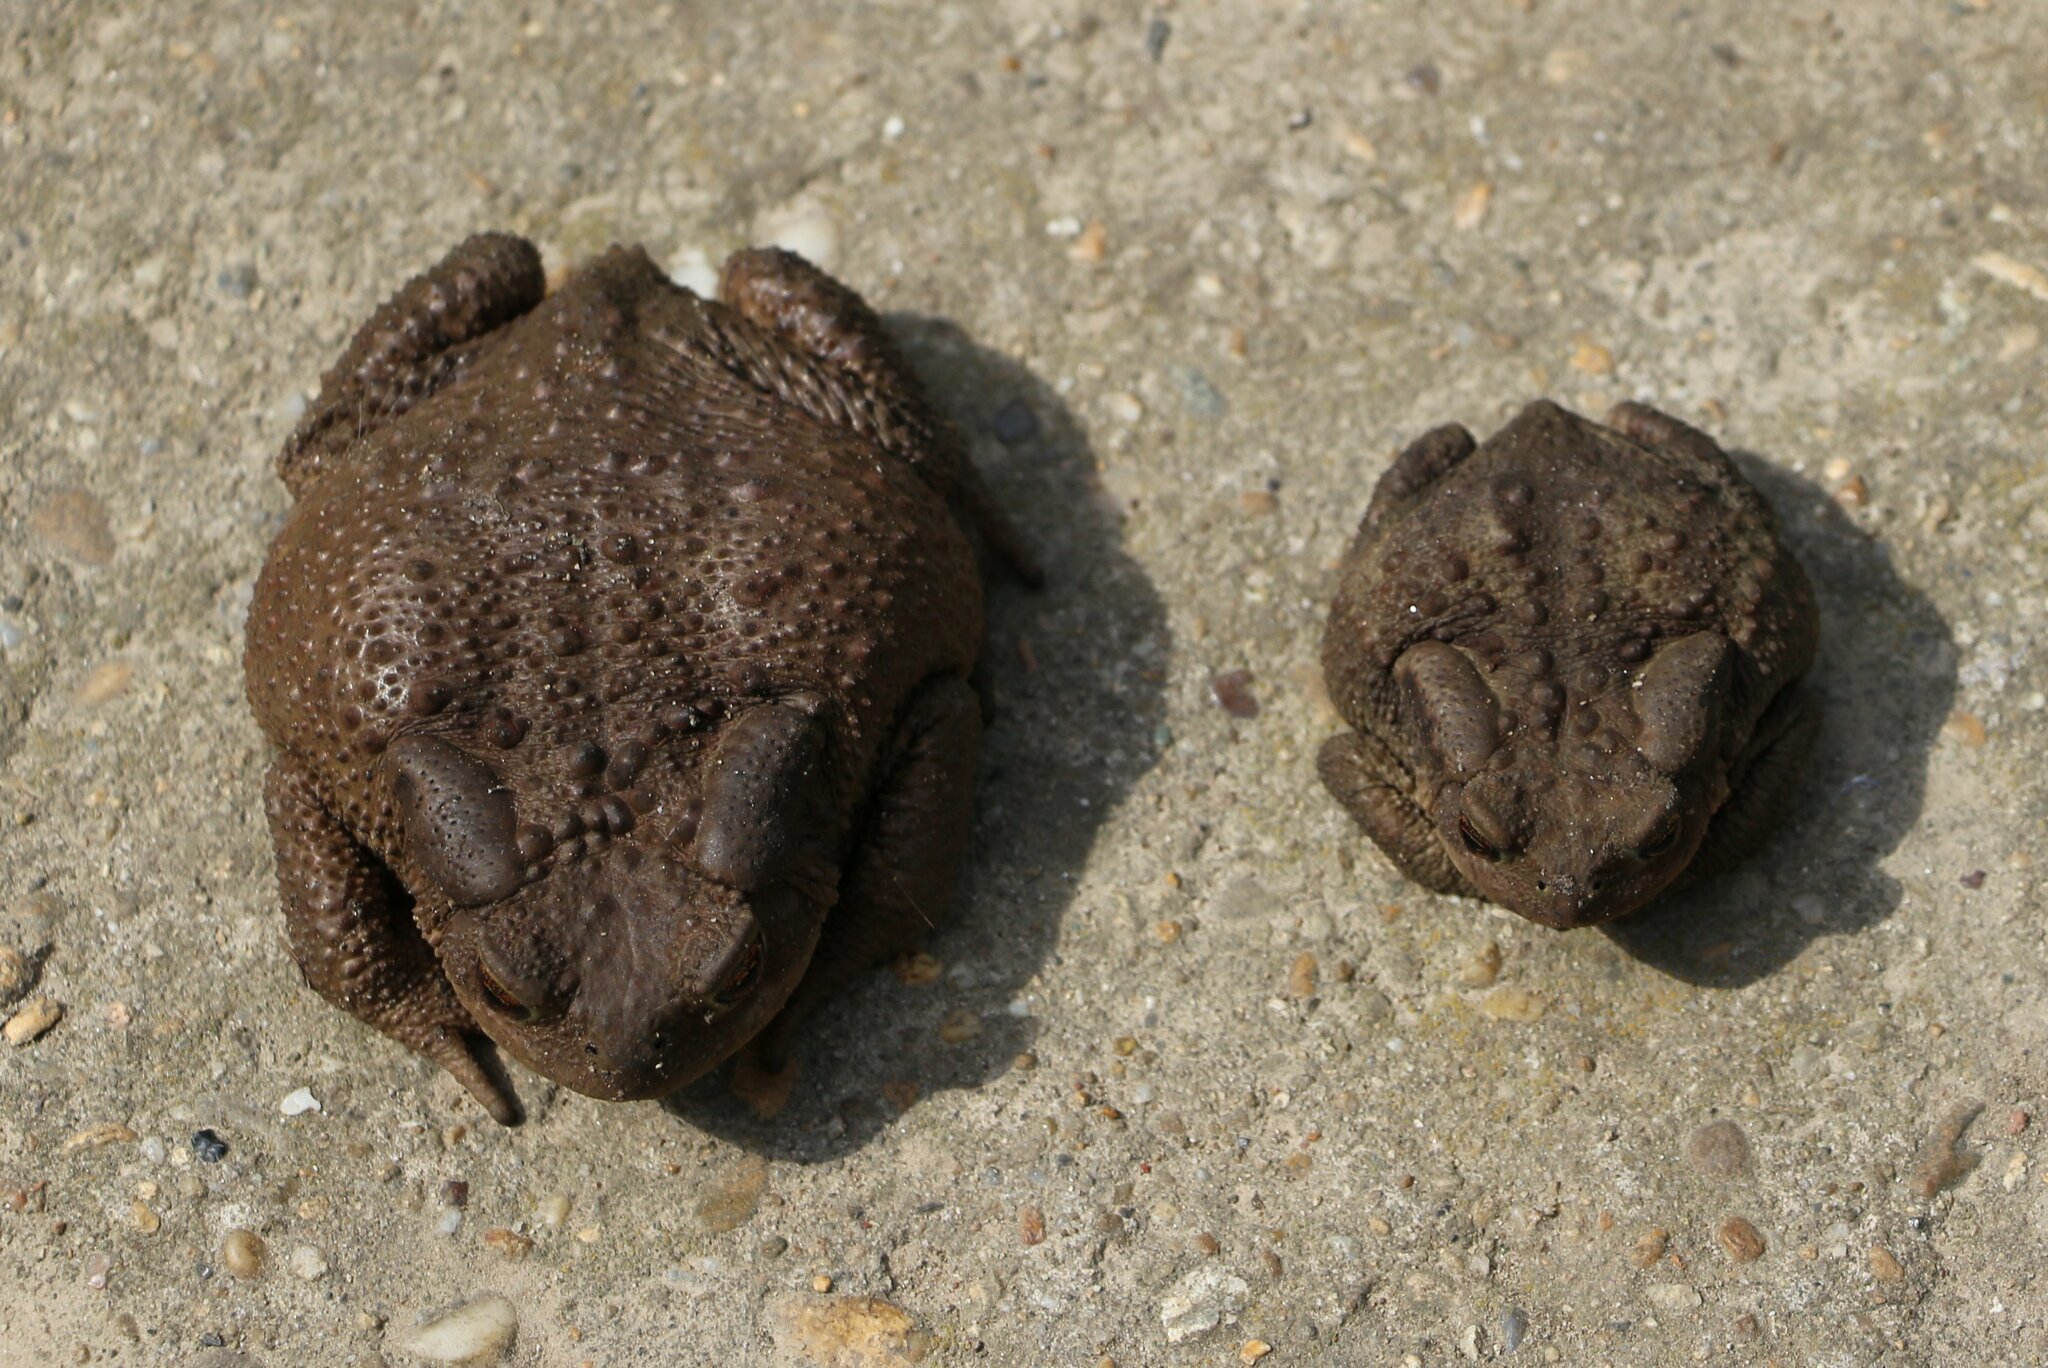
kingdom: Animalia
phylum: Chordata
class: Amphibia
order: Anura
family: Bufonidae
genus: Bufo
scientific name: Bufo verrucosissimus
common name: Caucasian toad
